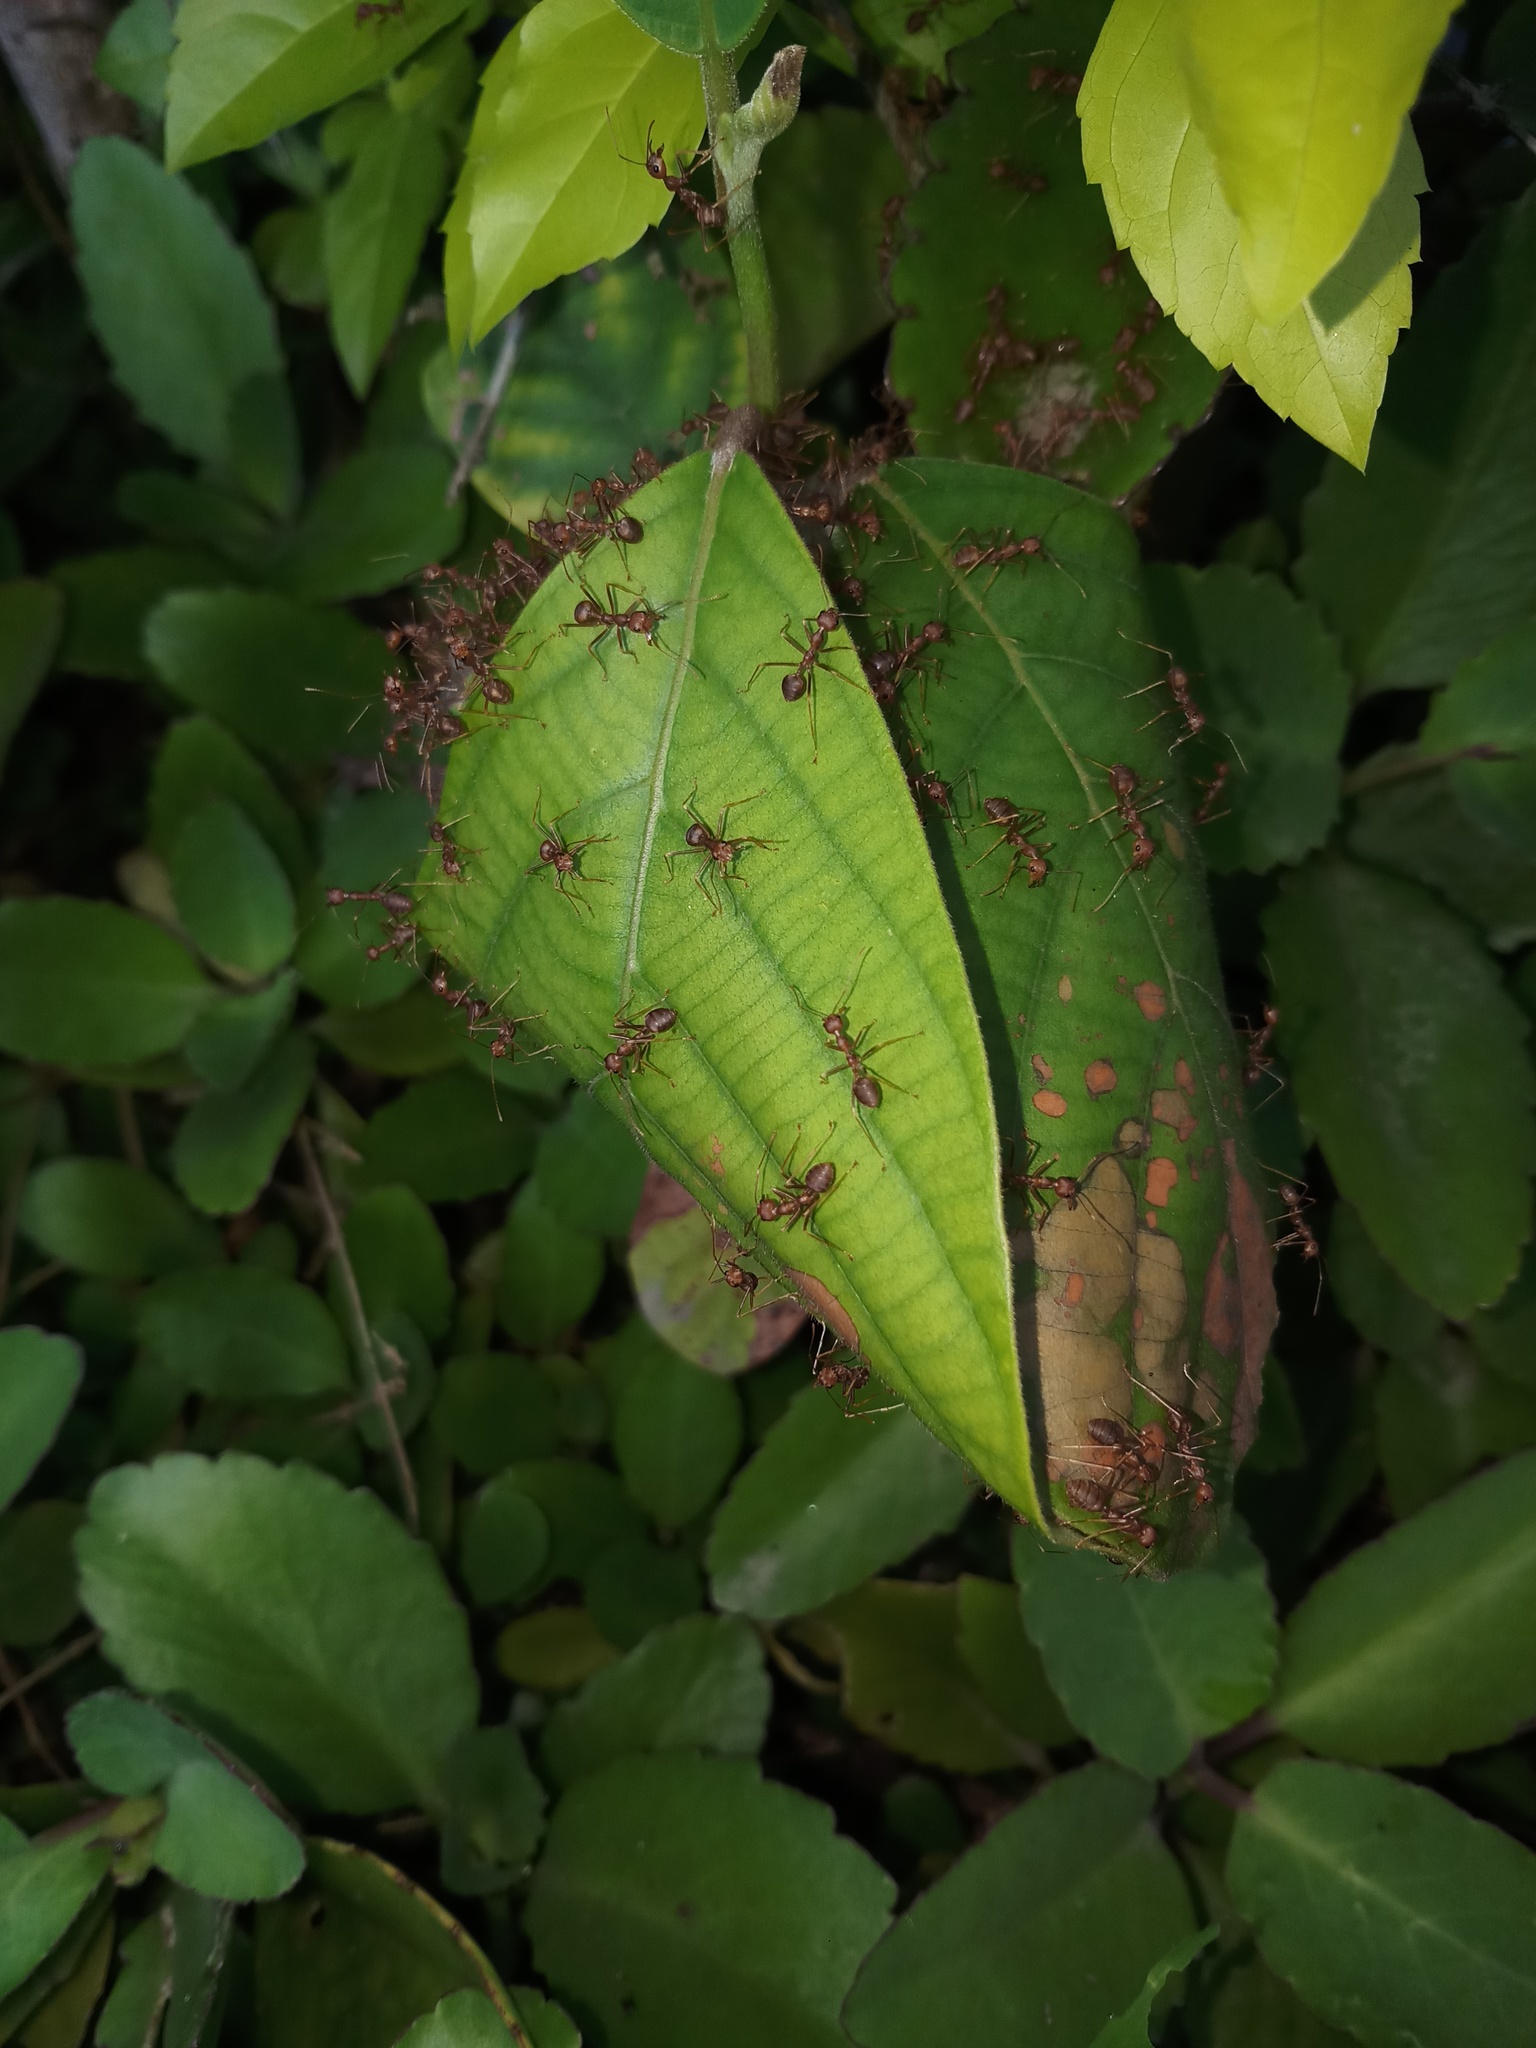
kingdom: Animalia
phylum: Arthropoda
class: Insecta
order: Hymenoptera
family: Formicidae
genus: Oecophylla
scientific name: Oecophylla smaragdina
